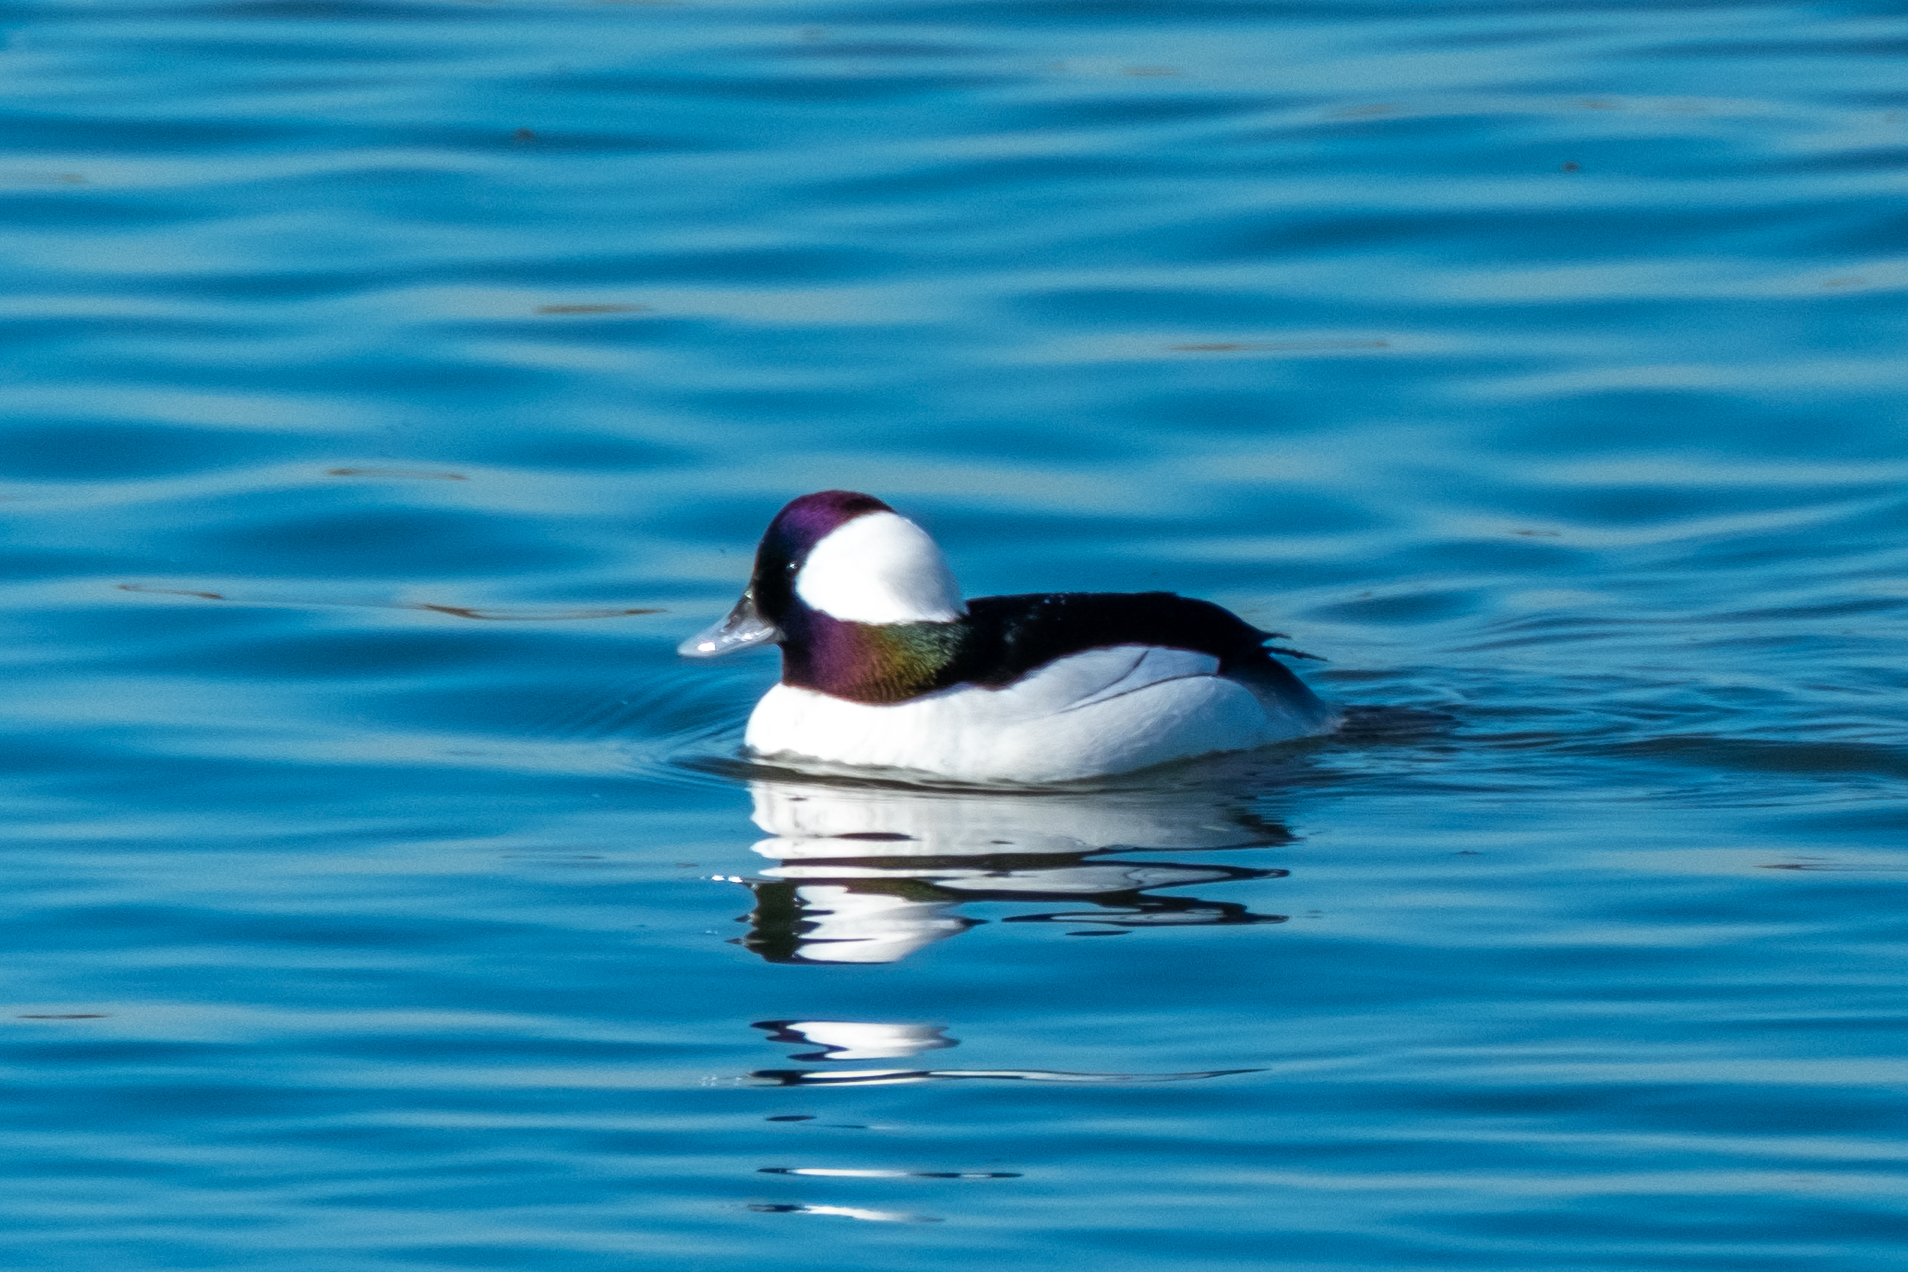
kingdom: Animalia
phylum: Chordata
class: Aves
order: Anseriformes
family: Anatidae
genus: Bucephala
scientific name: Bucephala albeola
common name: Bufflehead
